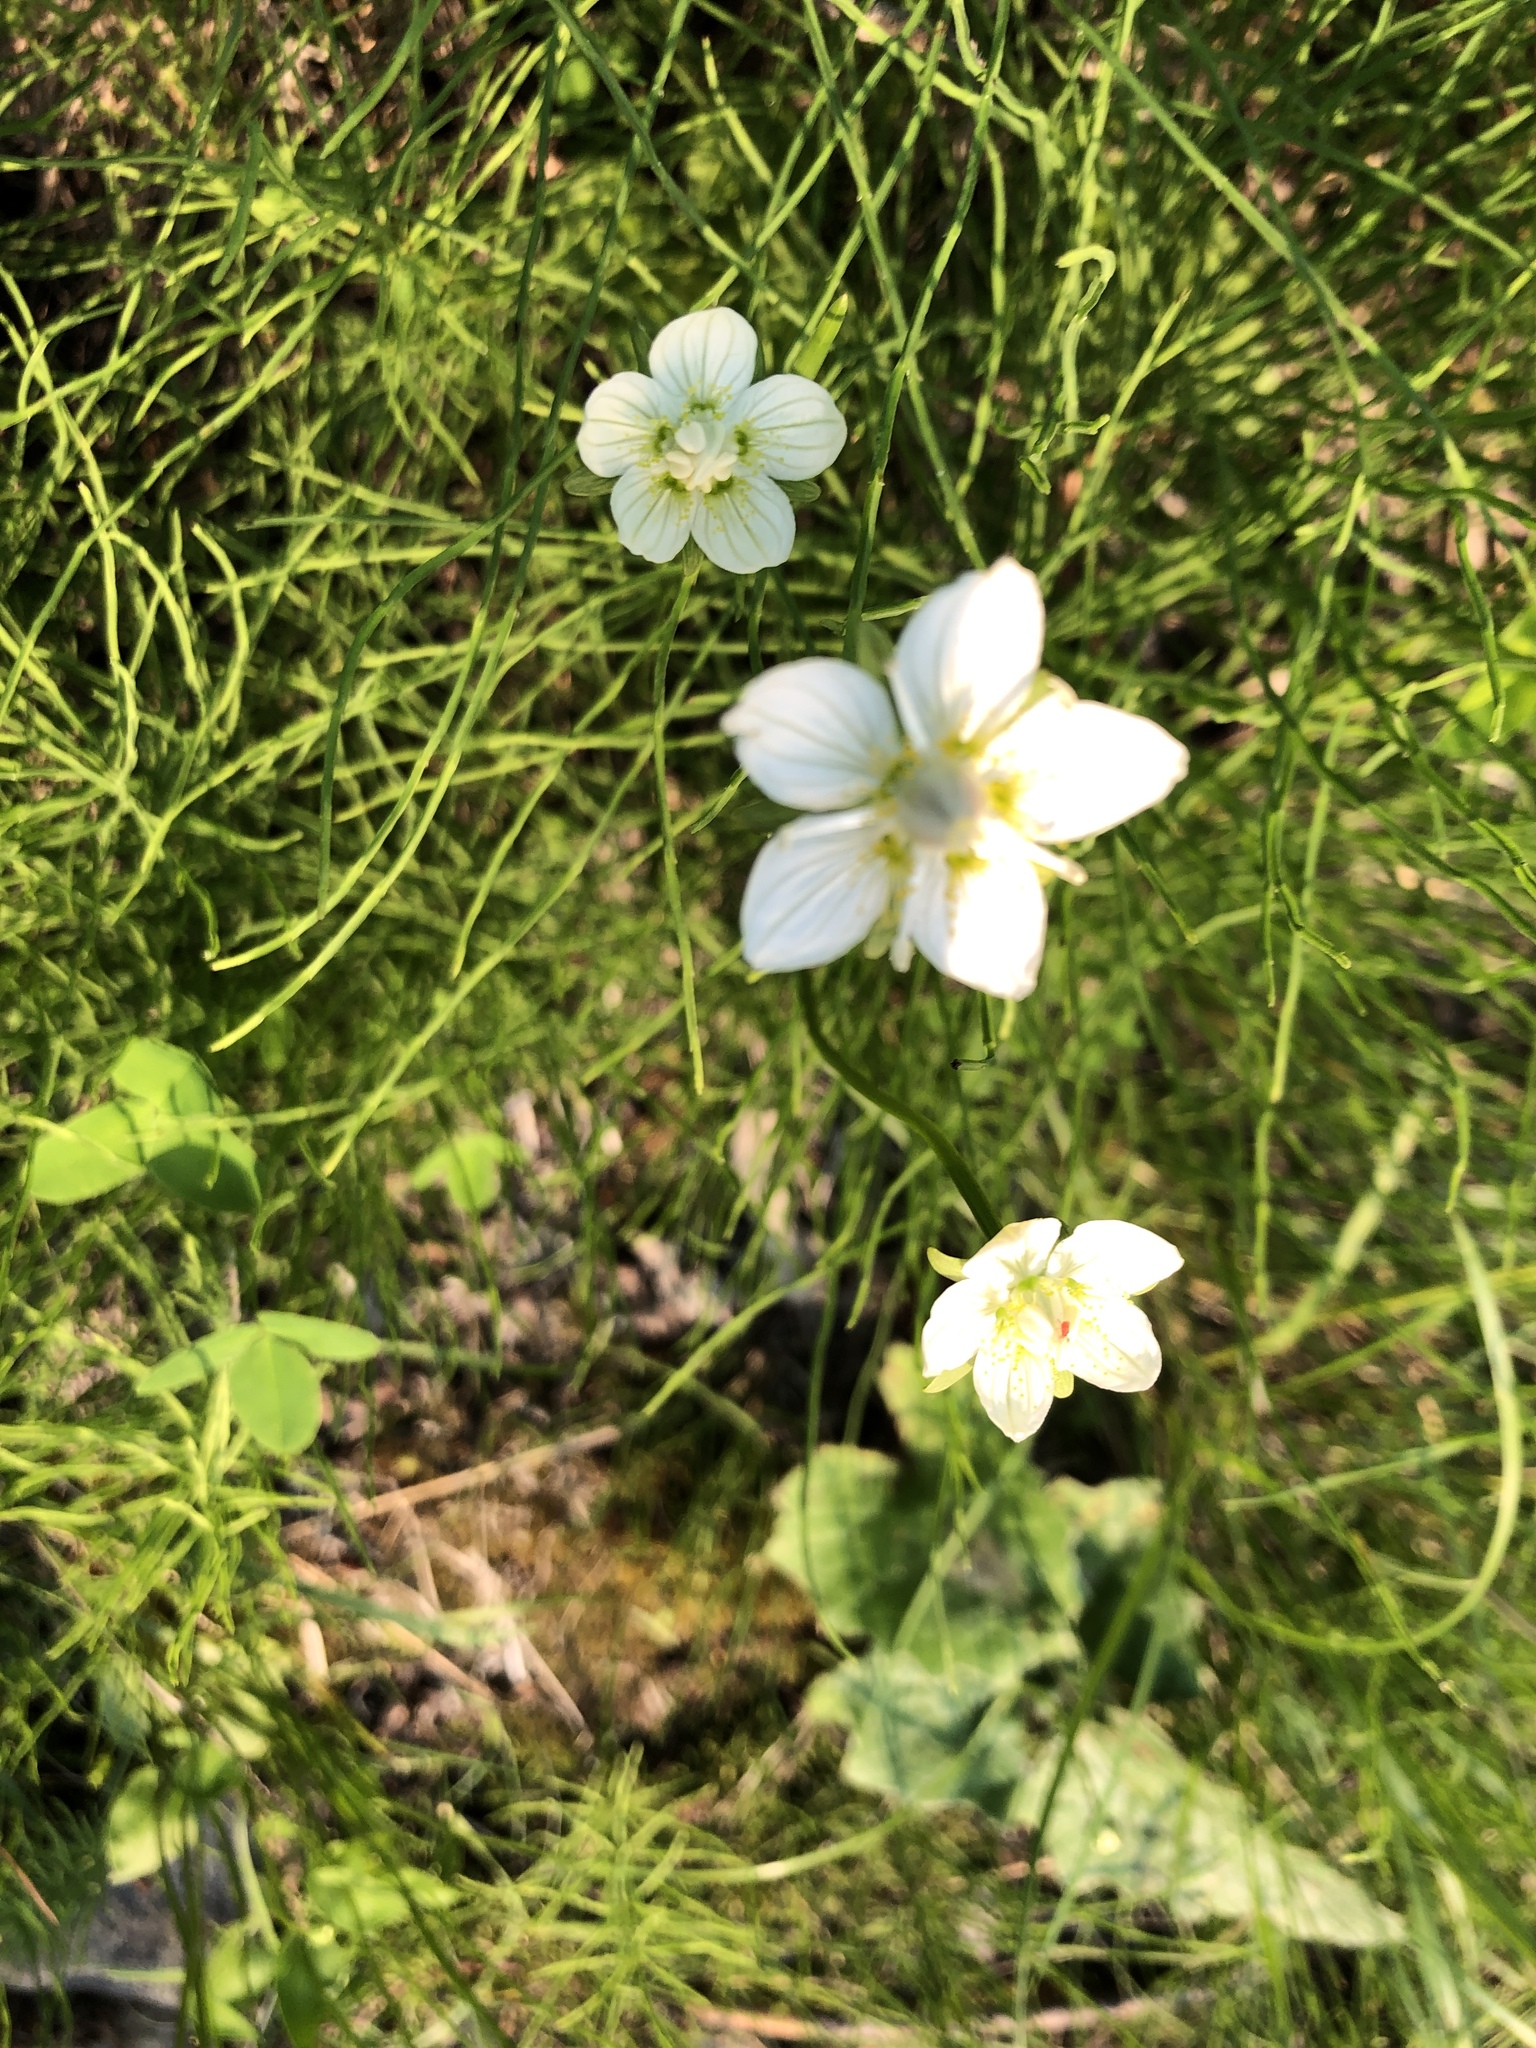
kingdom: Plantae
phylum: Tracheophyta
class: Magnoliopsida
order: Celastrales
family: Parnassiaceae
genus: Parnassia
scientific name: Parnassia palustris
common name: Grass-of-parnassus
